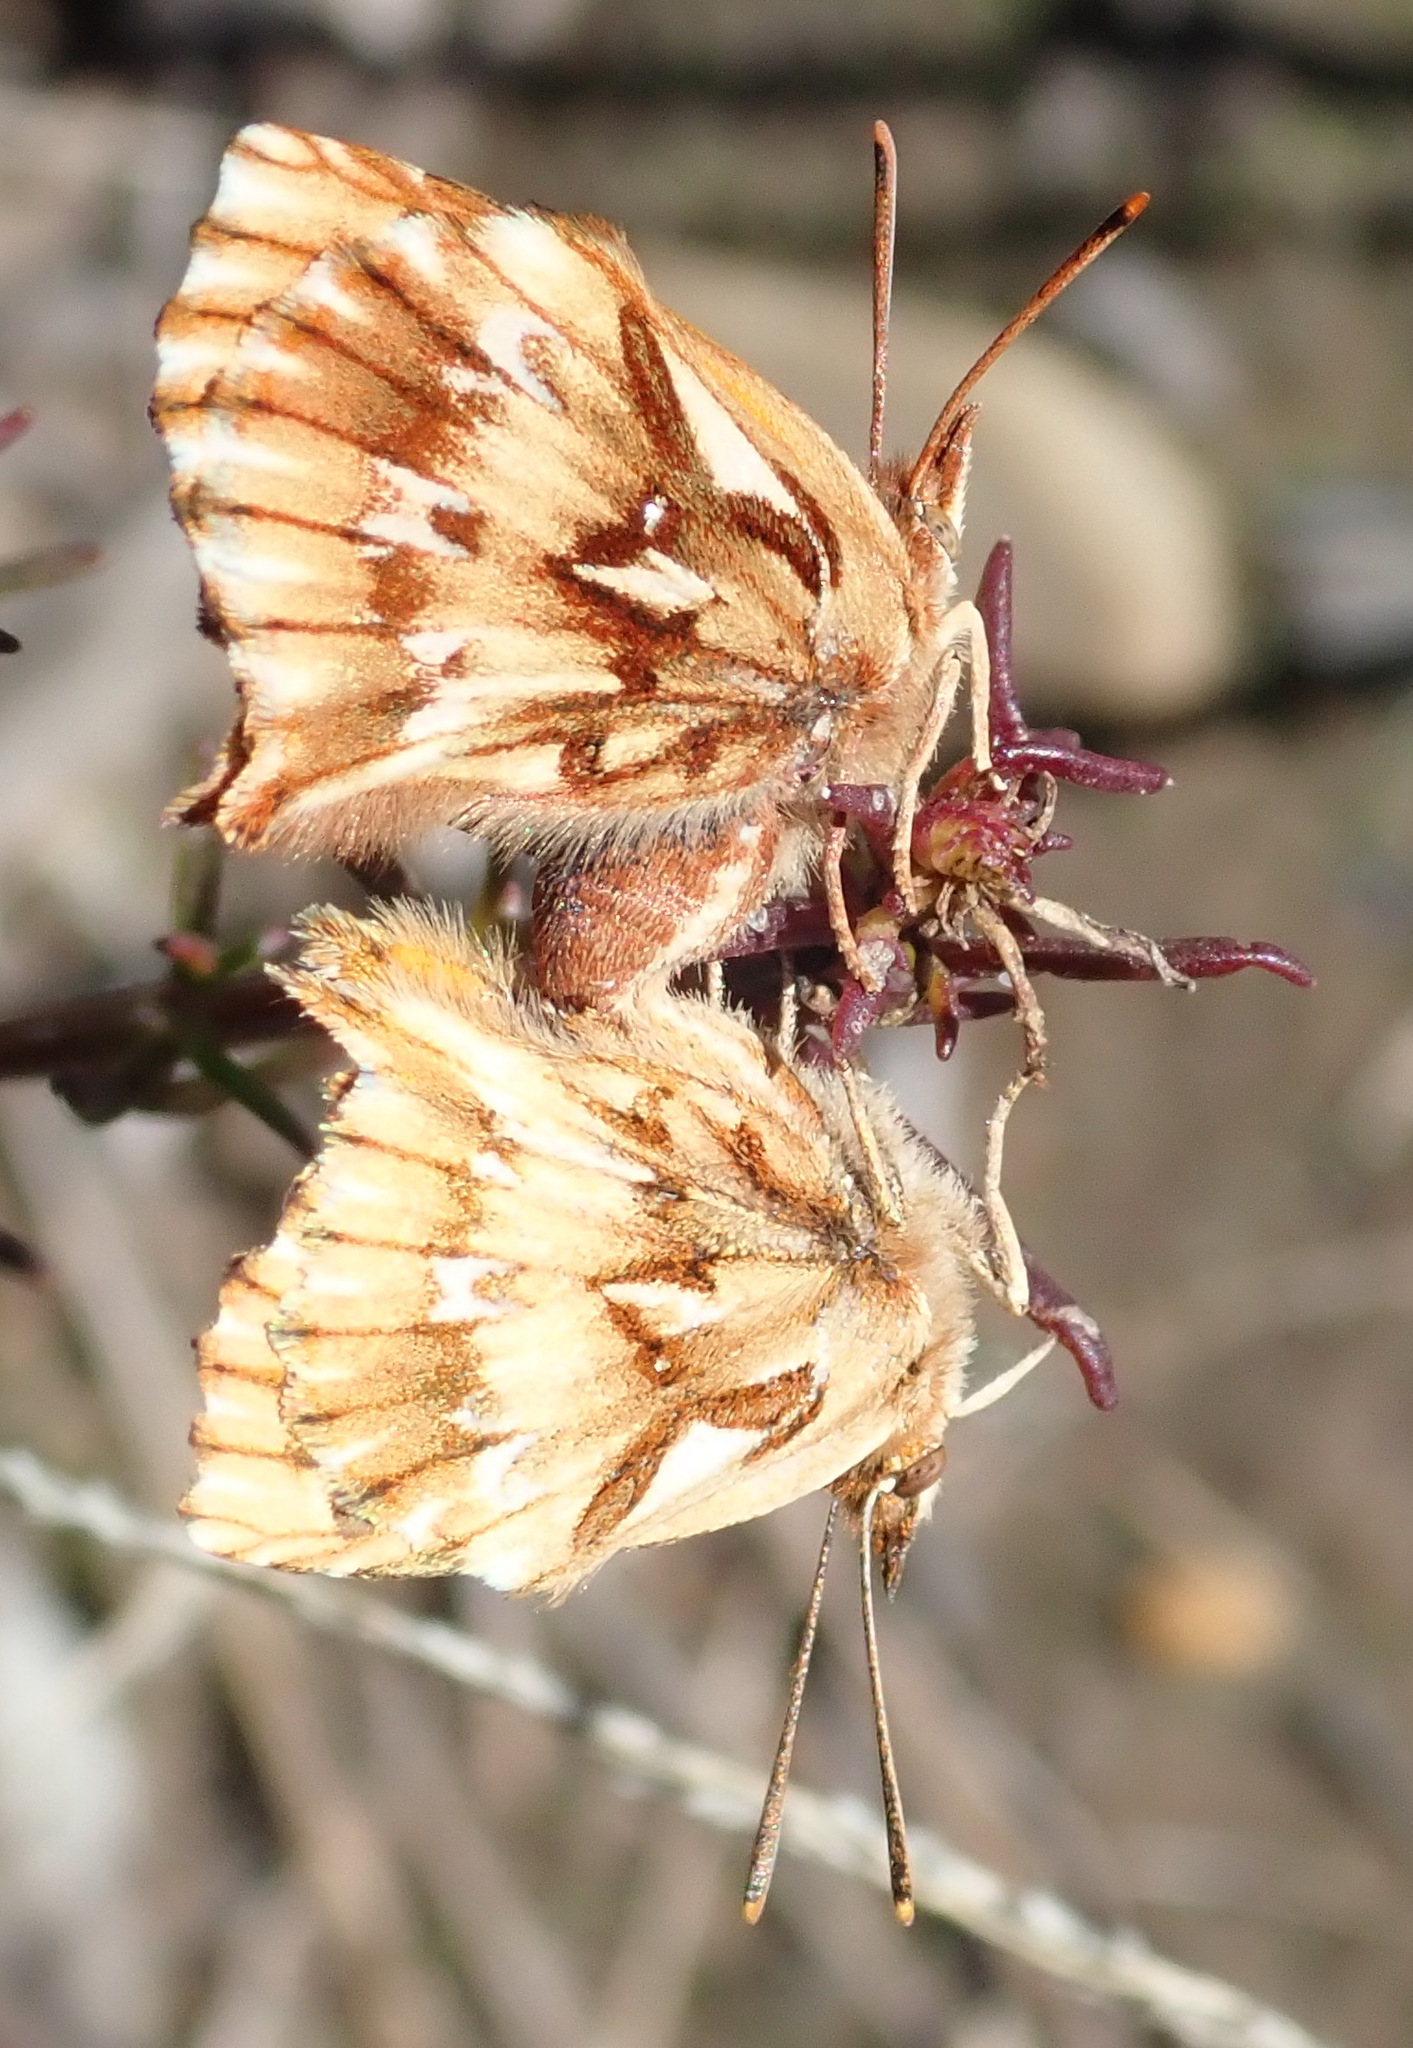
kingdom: Animalia
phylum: Arthropoda
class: Insecta
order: Lepidoptera
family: Lycaenidae
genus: Chrysoritis
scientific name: Chrysoritis
